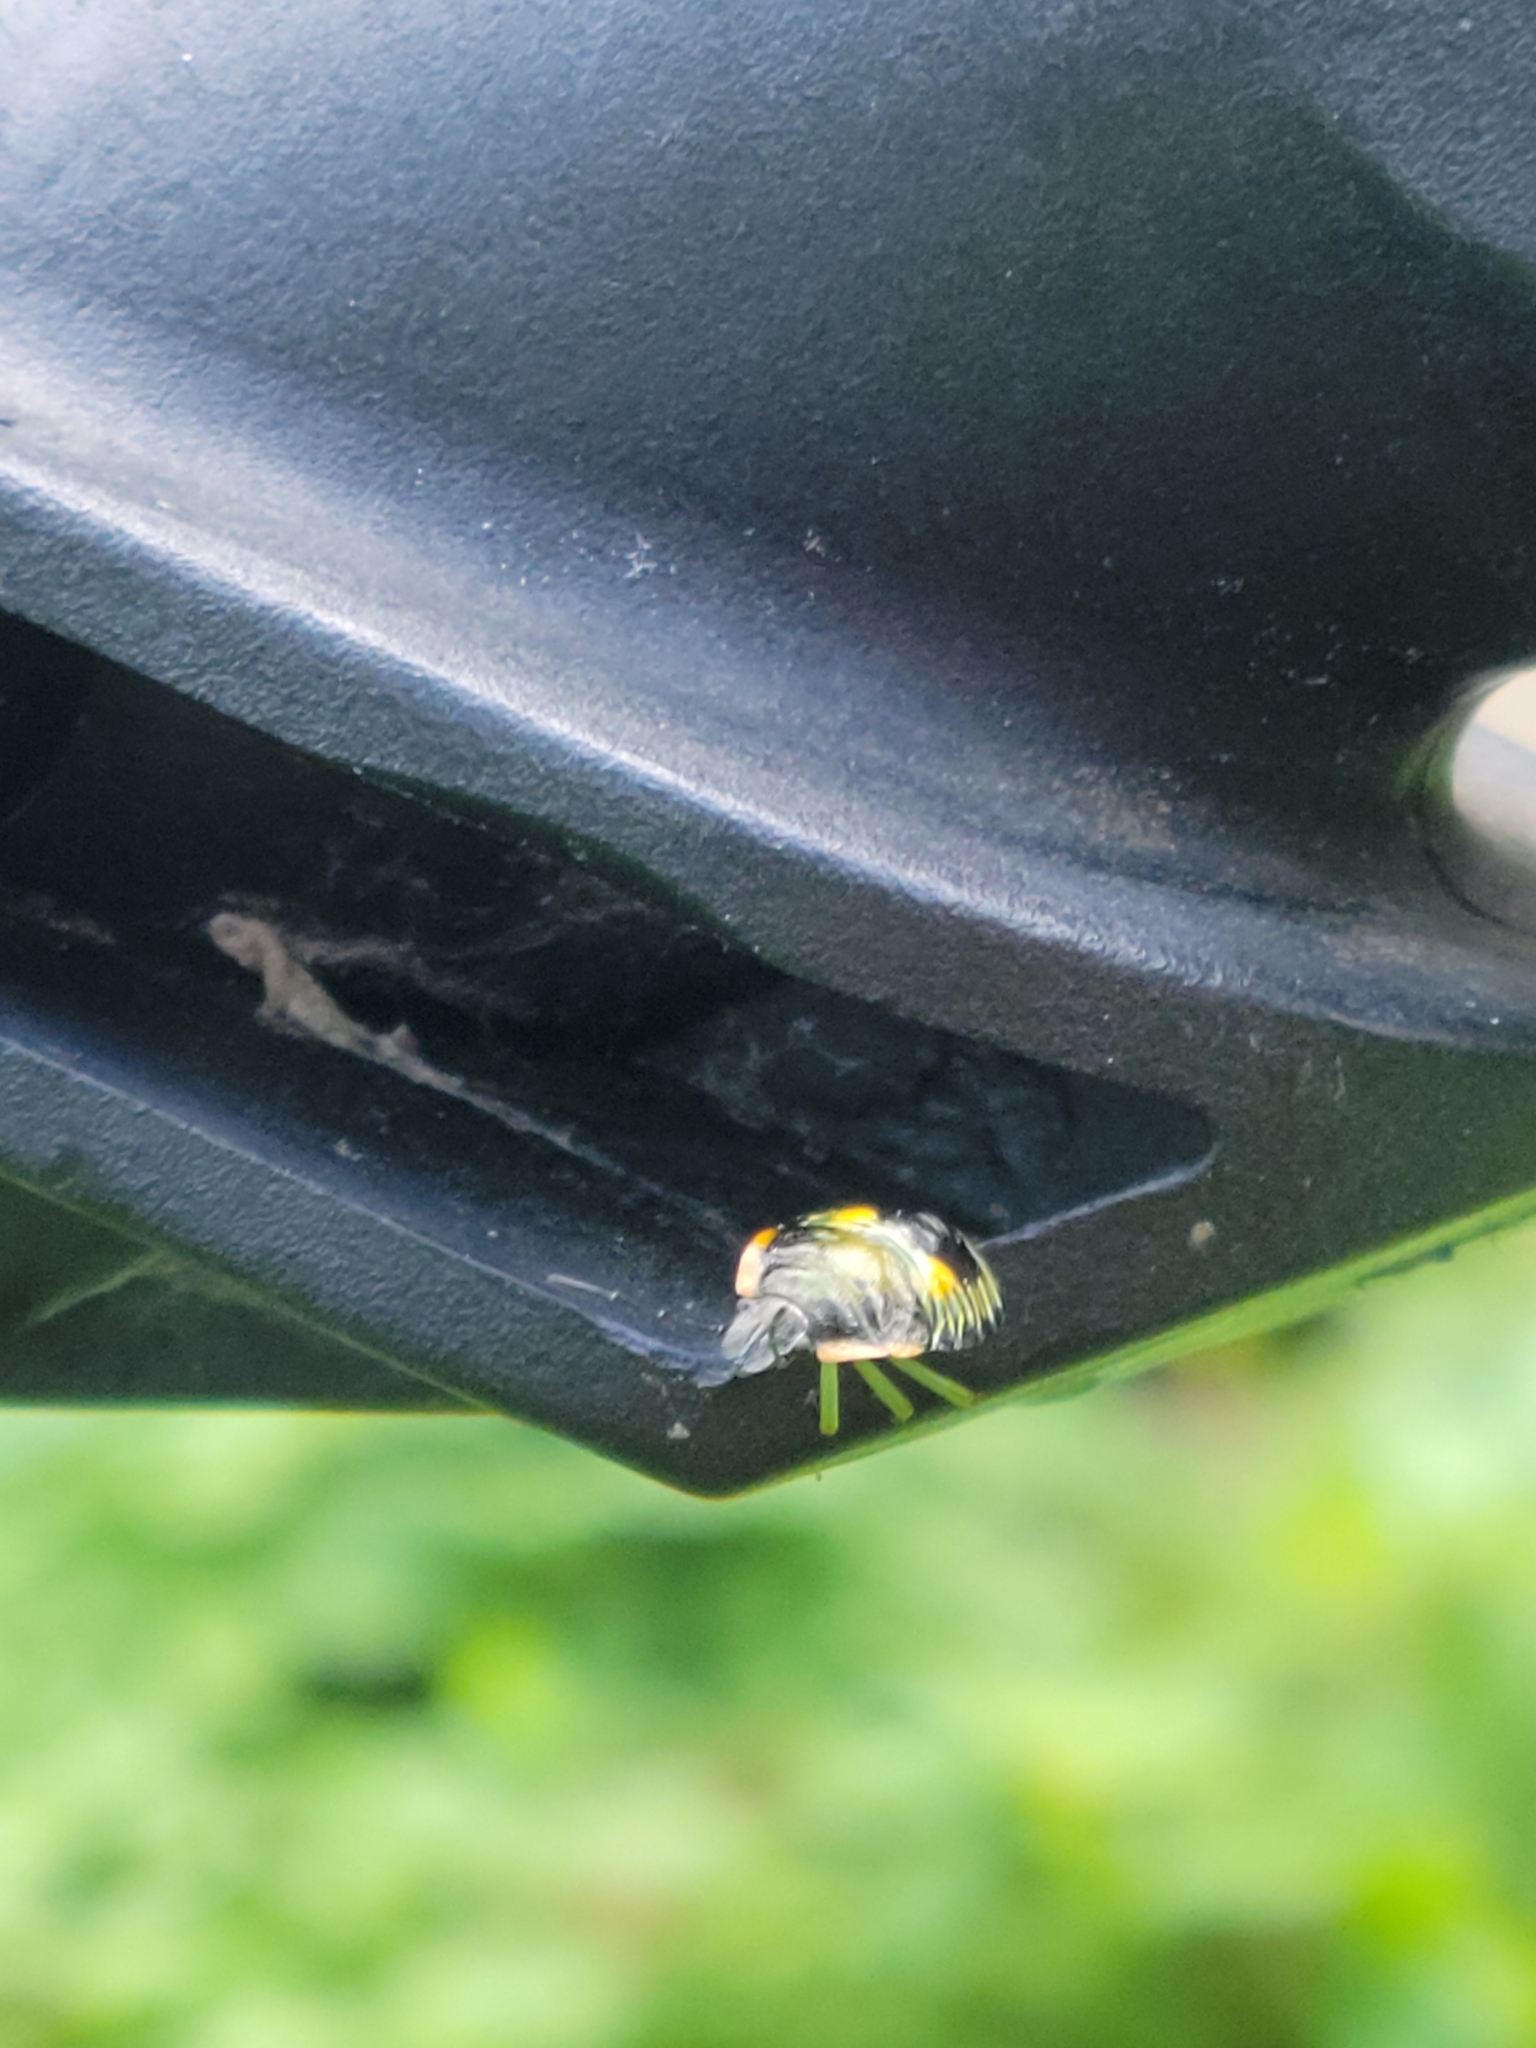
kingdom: Animalia
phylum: Arthropoda
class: Insecta
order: Hemiptera
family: Pentatomidae
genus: Chinavia
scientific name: Chinavia hilaris
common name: Green stink bug
